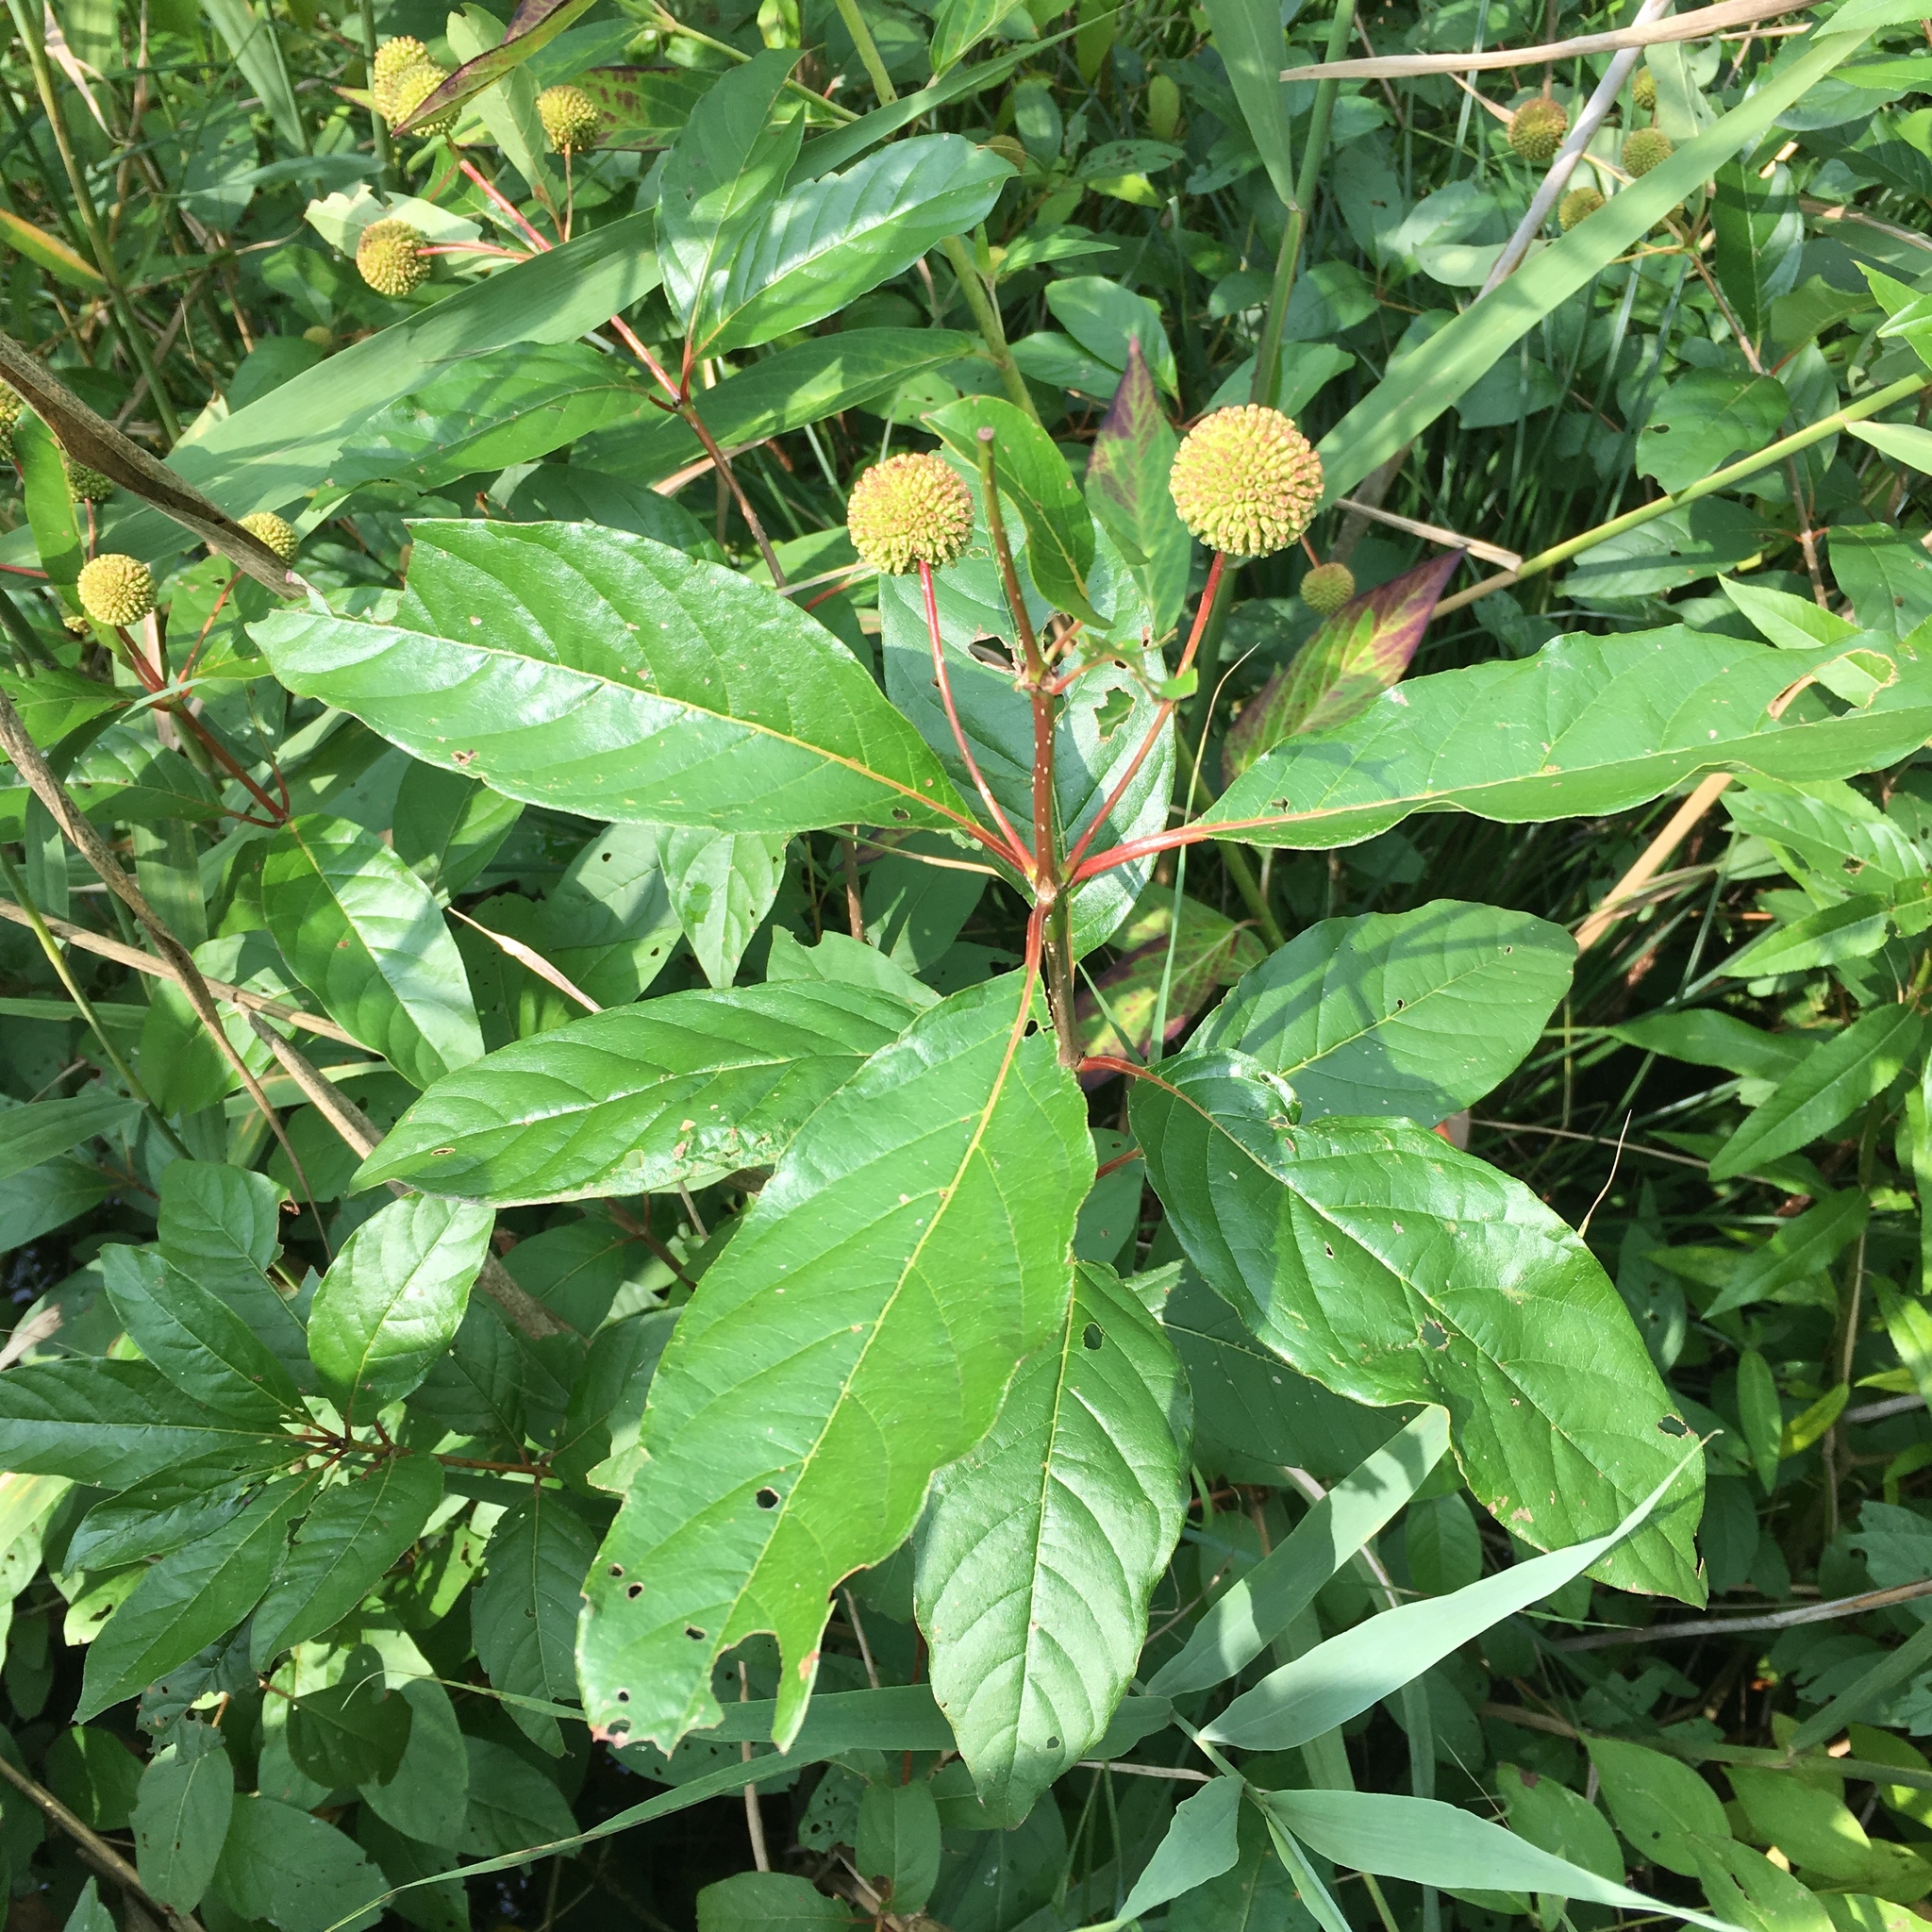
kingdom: Plantae
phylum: Tracheophyta
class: Magnoliopsida
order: Gentianales
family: Rubiaceae
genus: Cephalanthus
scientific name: Cephalanthus occidentalis
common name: Button-willow
